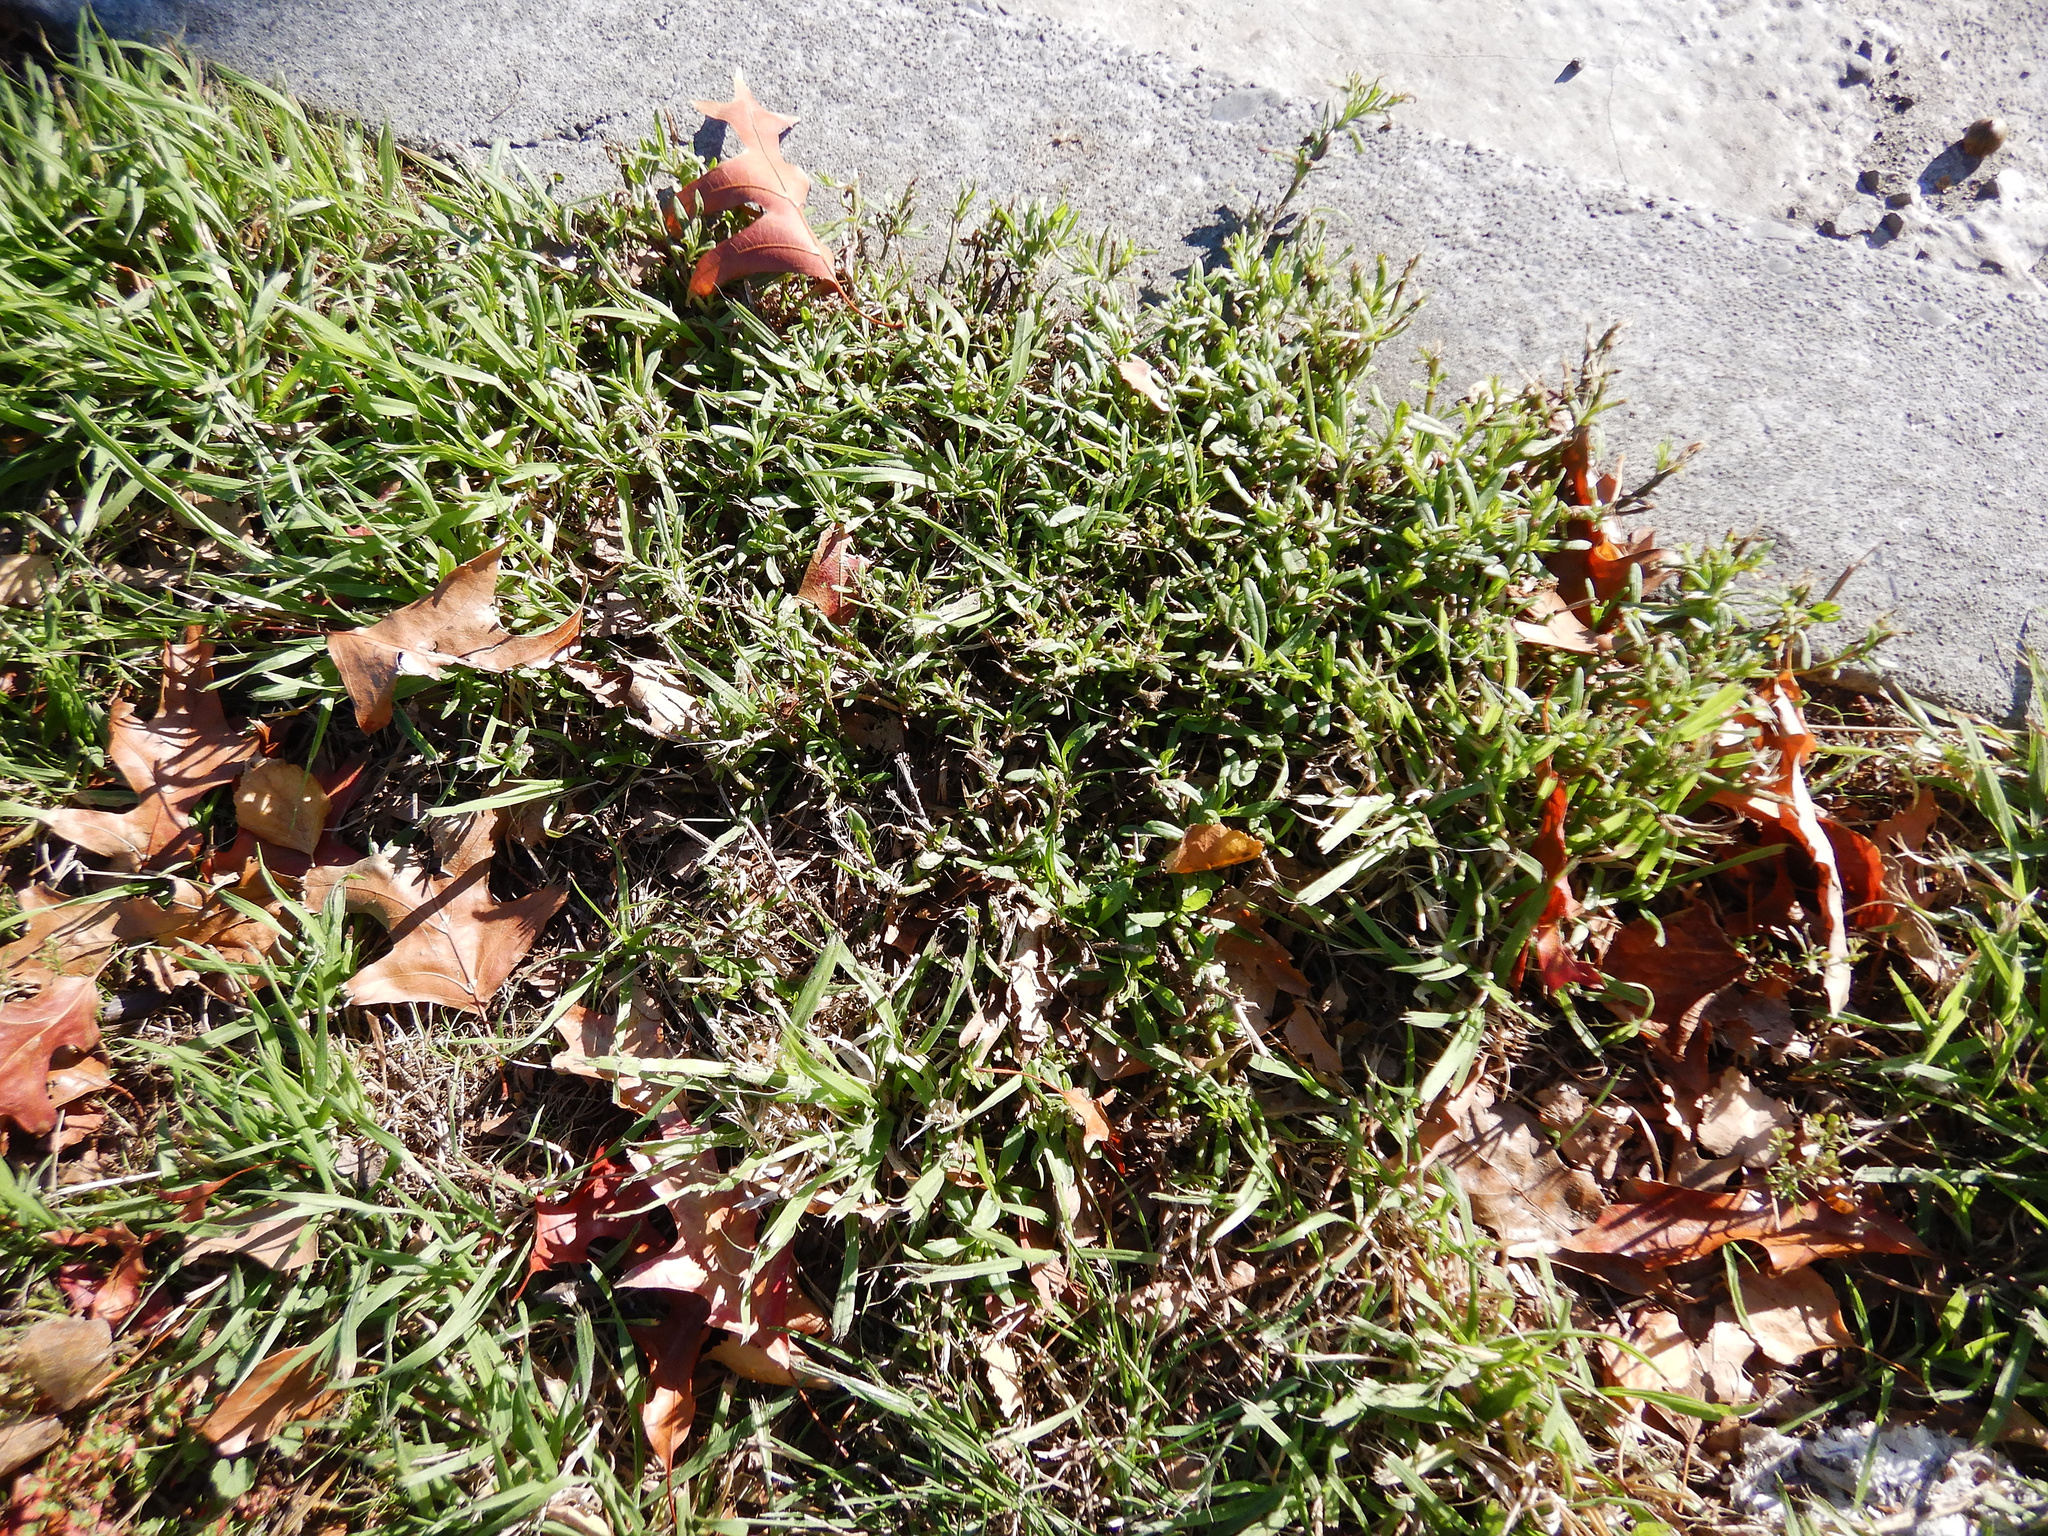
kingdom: Plantae
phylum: Tracheophyta
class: Magnoliopsida
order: Asterales
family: Asteraceae
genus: Senecio
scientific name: Senecio skirrhodon
